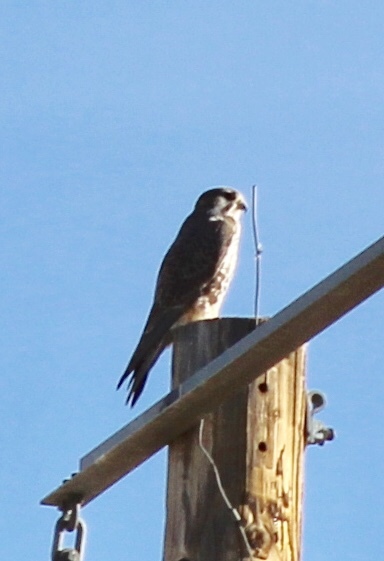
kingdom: Animalia
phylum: Chordata
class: Aves
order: Falconiformes
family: Falconidae
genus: Falco
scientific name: Falco sparverius
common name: American kestrel
